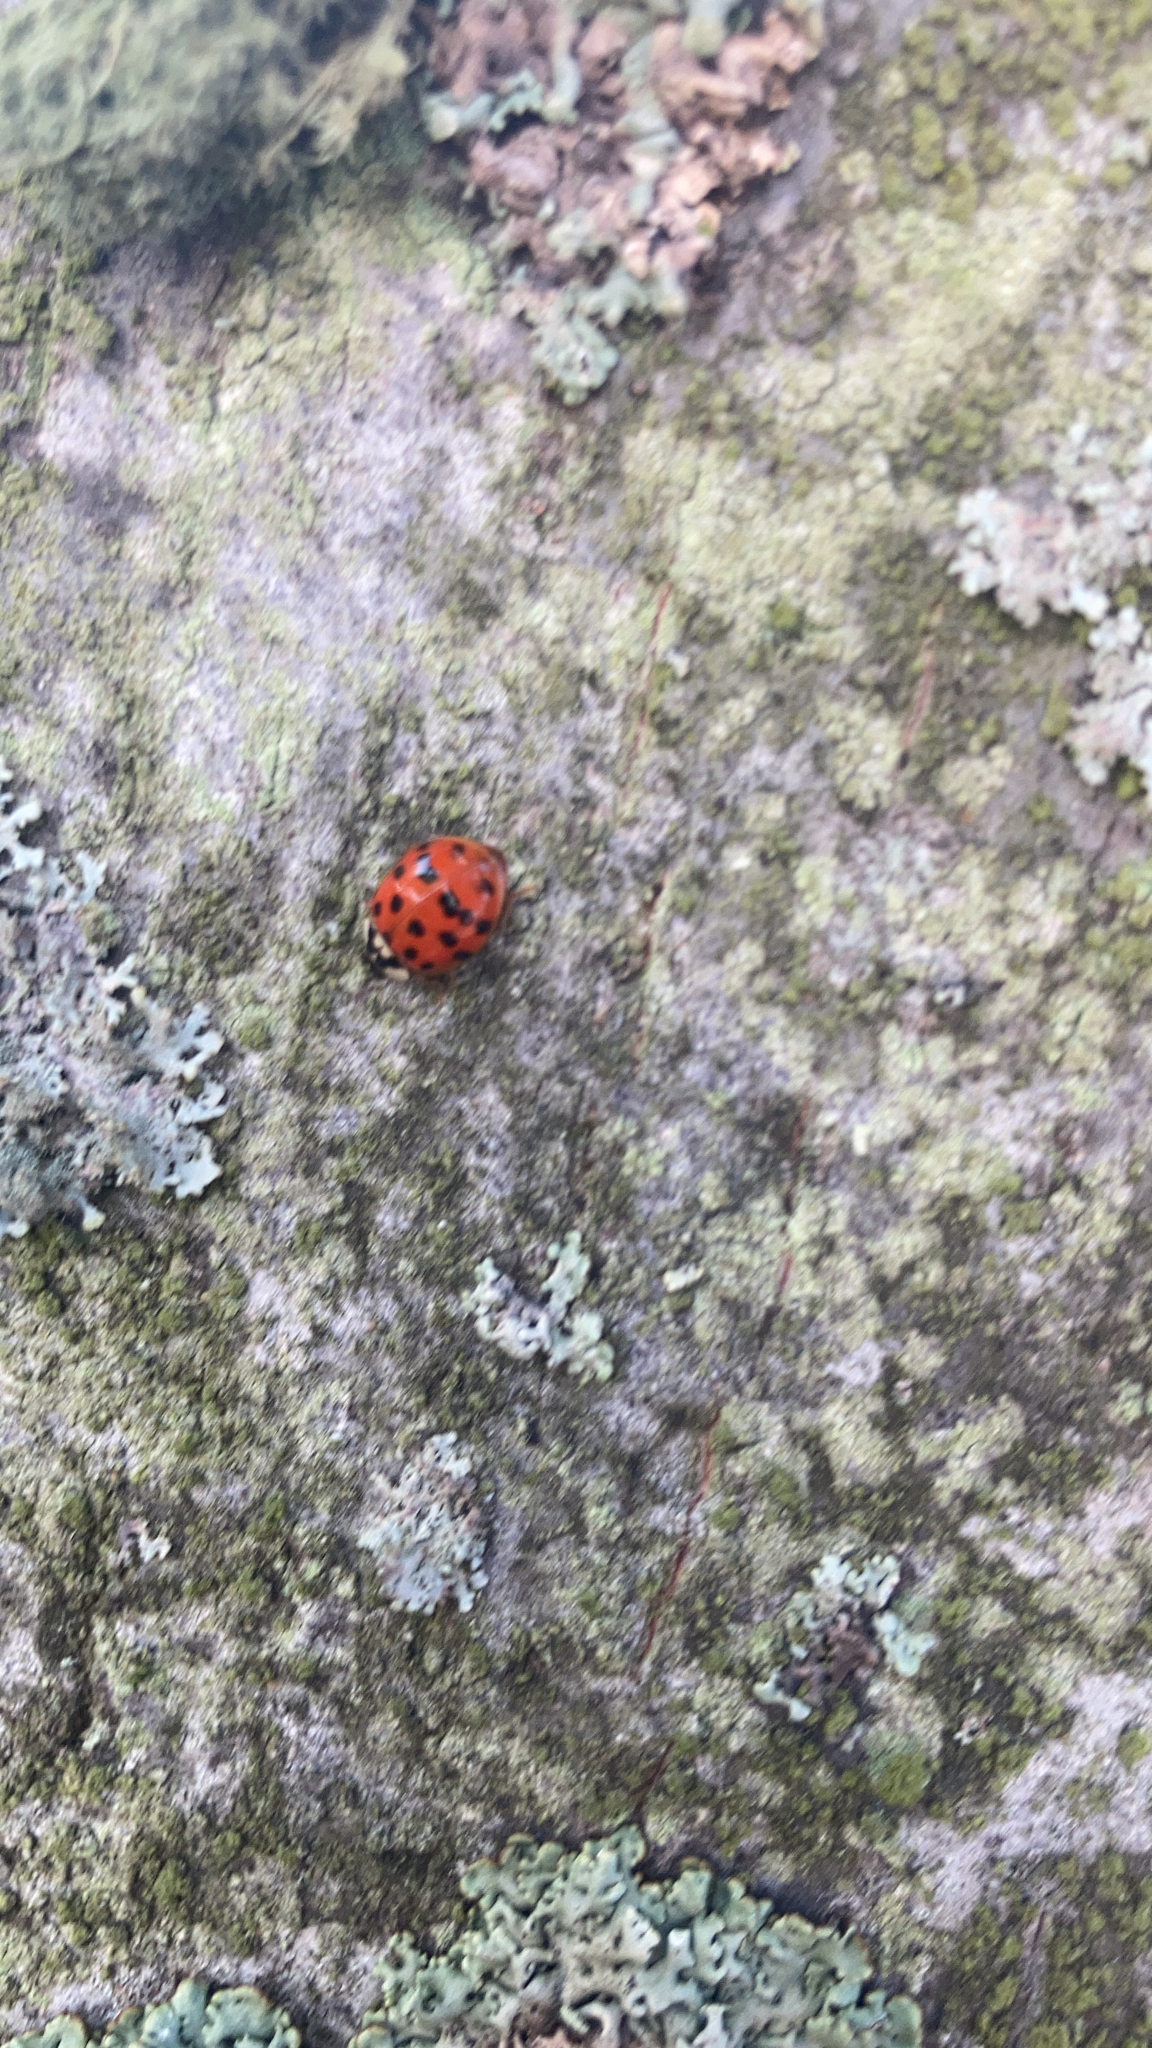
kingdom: Animalia
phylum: Arthropoda
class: Insecta
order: Coleoptera
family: Coccinellidae
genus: Harmonia
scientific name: Harmonia axyridis
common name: Harlequin ladybird
